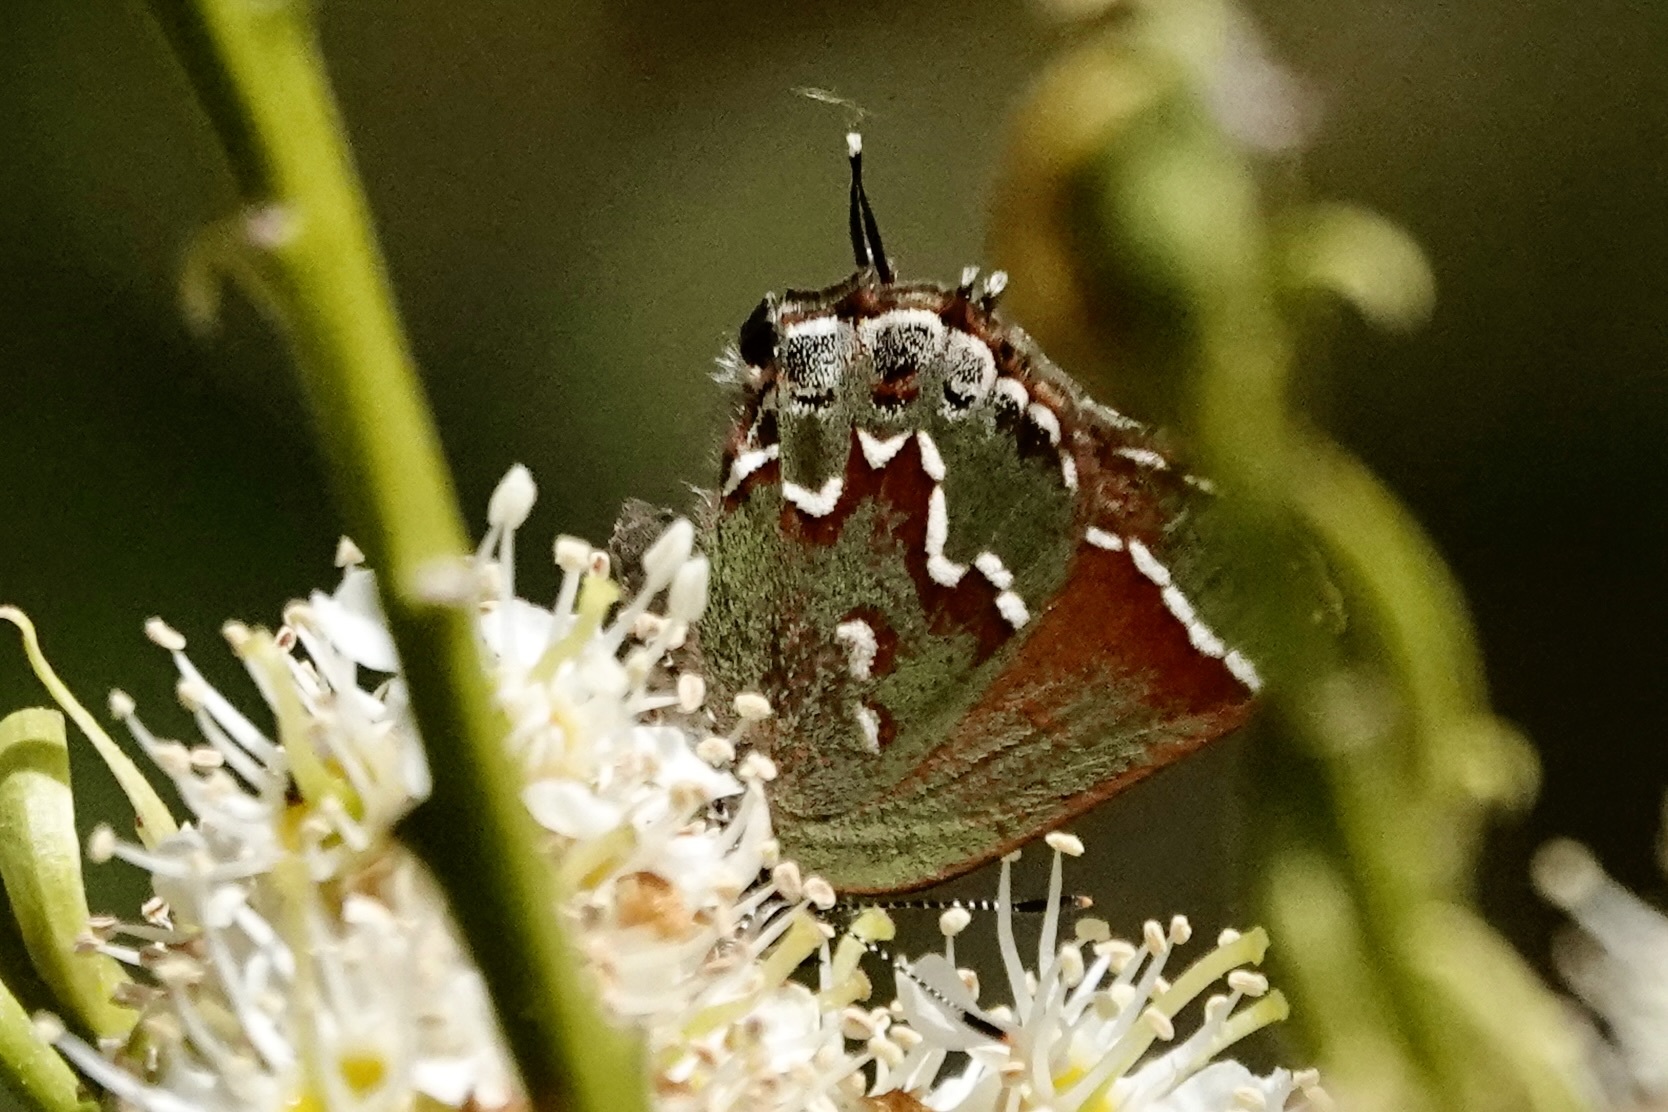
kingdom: Animalia
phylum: Arthropoda
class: Insecta
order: Lepidoptera
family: Lycaenidae
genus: Mitoura
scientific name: Mitoura gryneus
